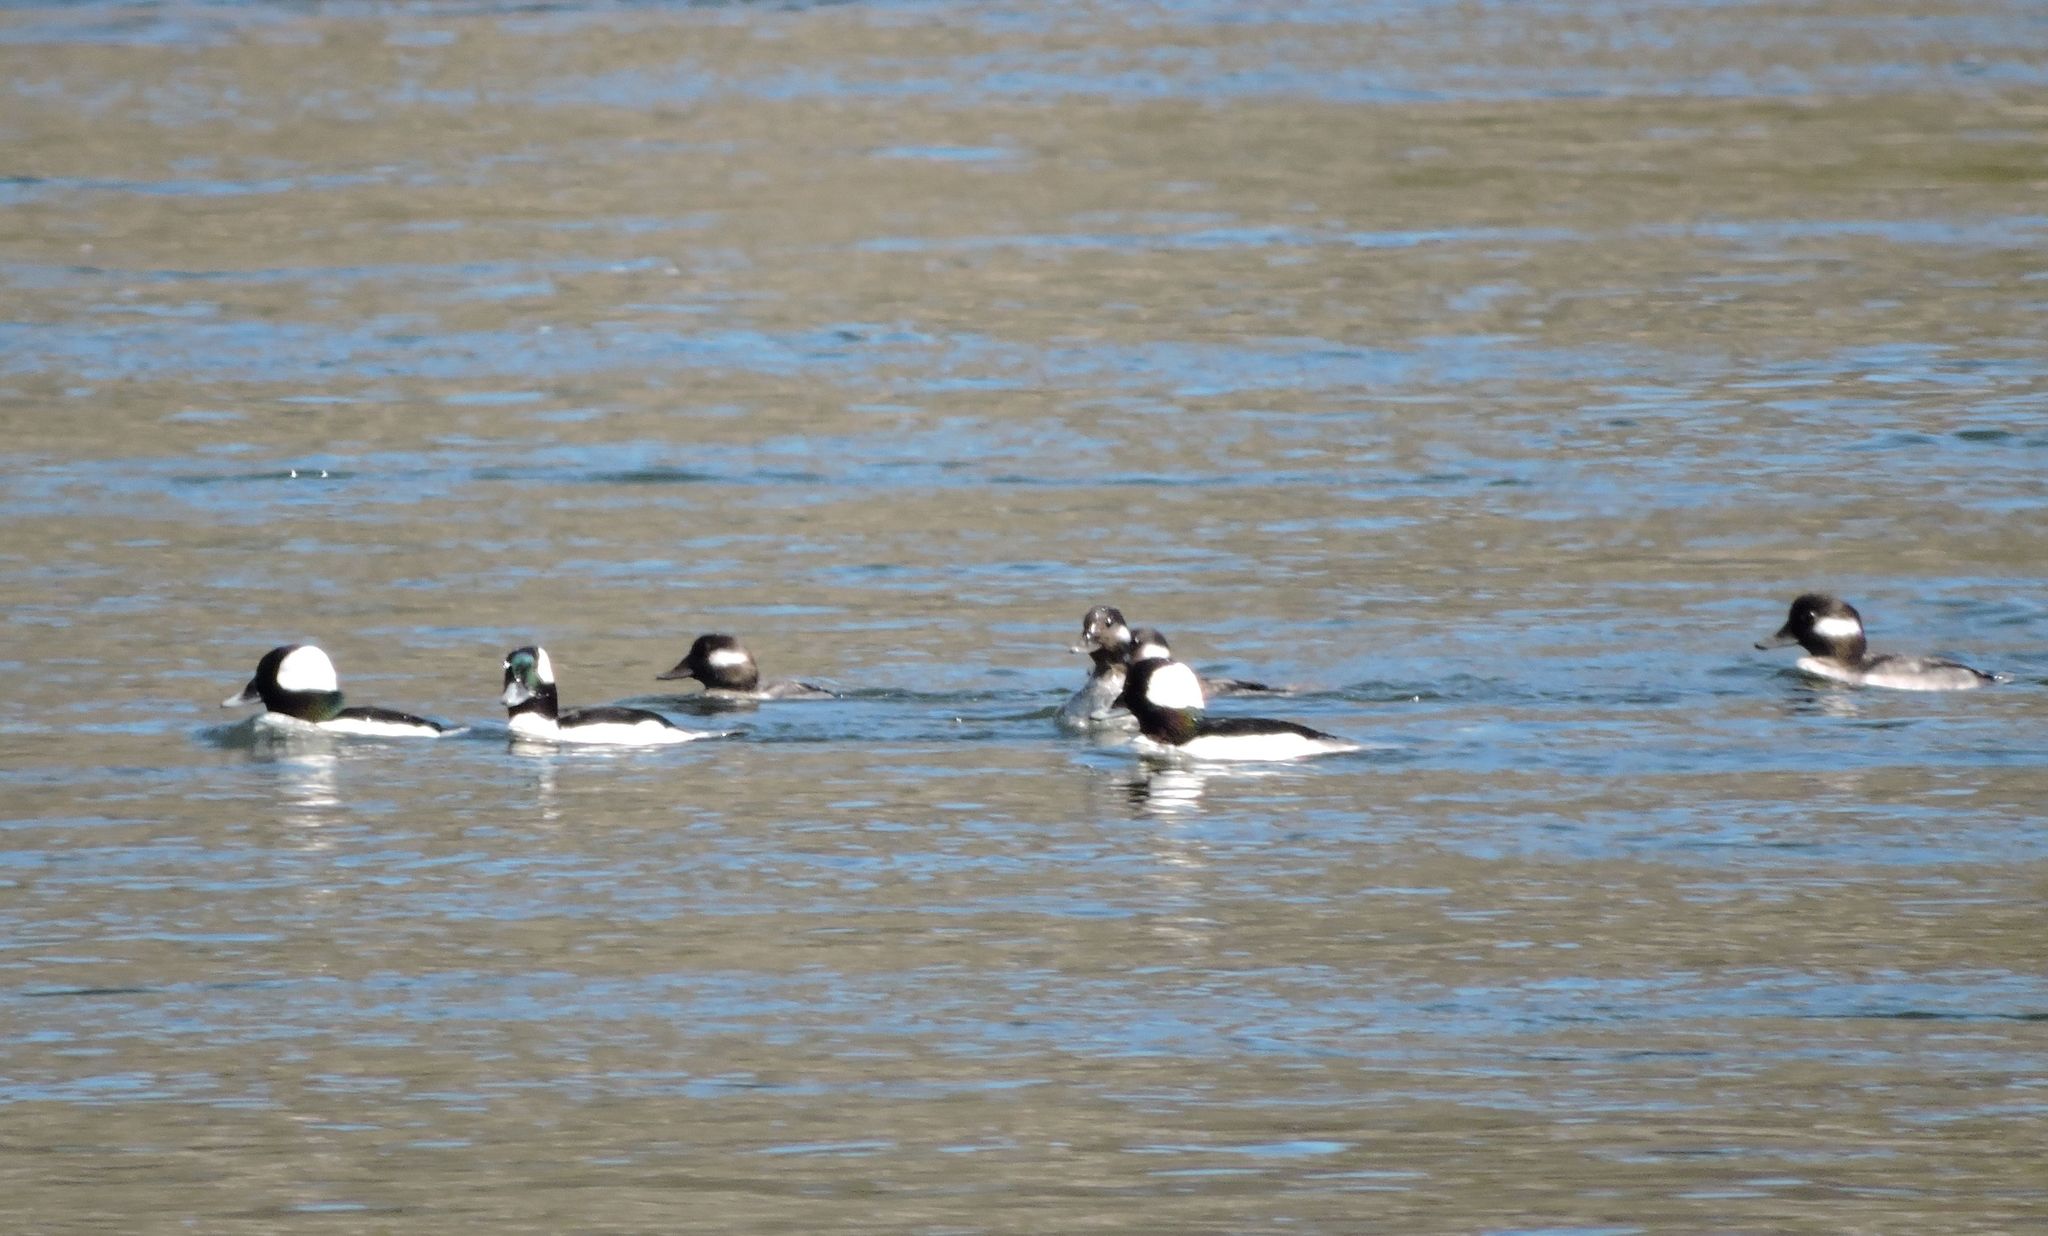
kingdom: Animalia
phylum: Chordata
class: Aves
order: Anseriformes
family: Anatidae
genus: Bucephala
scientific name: Bucephala albeola
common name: Bufflehead
